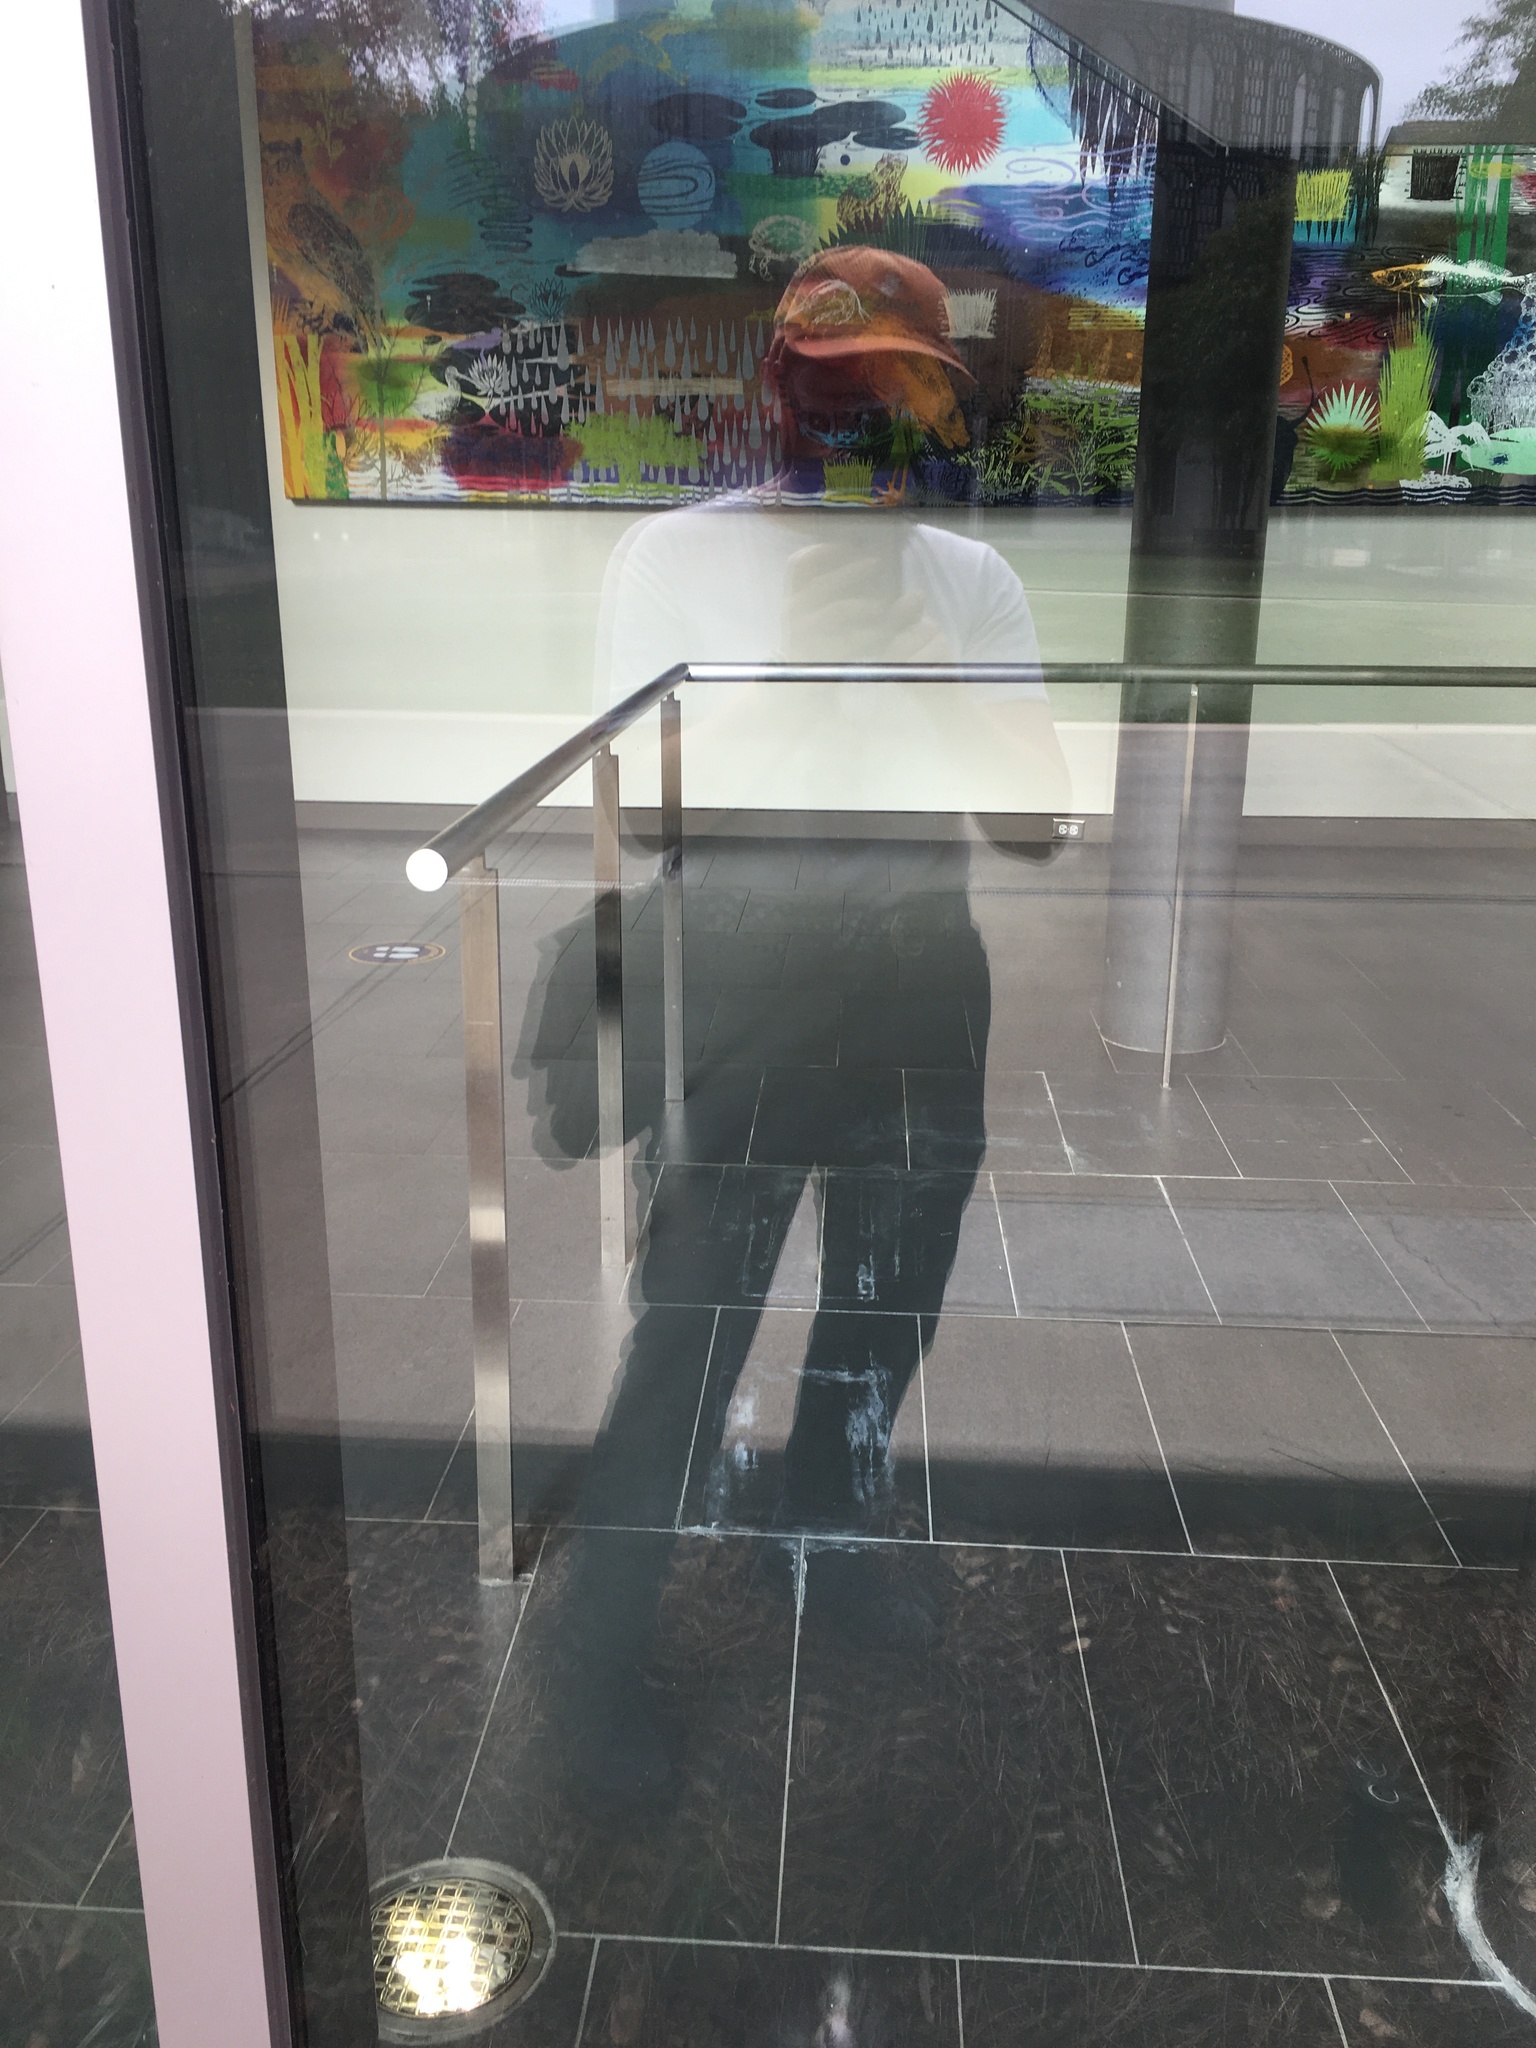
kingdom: Animalia
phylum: Chordata
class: Aves
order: Passeriformes
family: Passerellidae
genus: Melospiza
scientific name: Melospiza lincolnii
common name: Lincoln's sparrow
